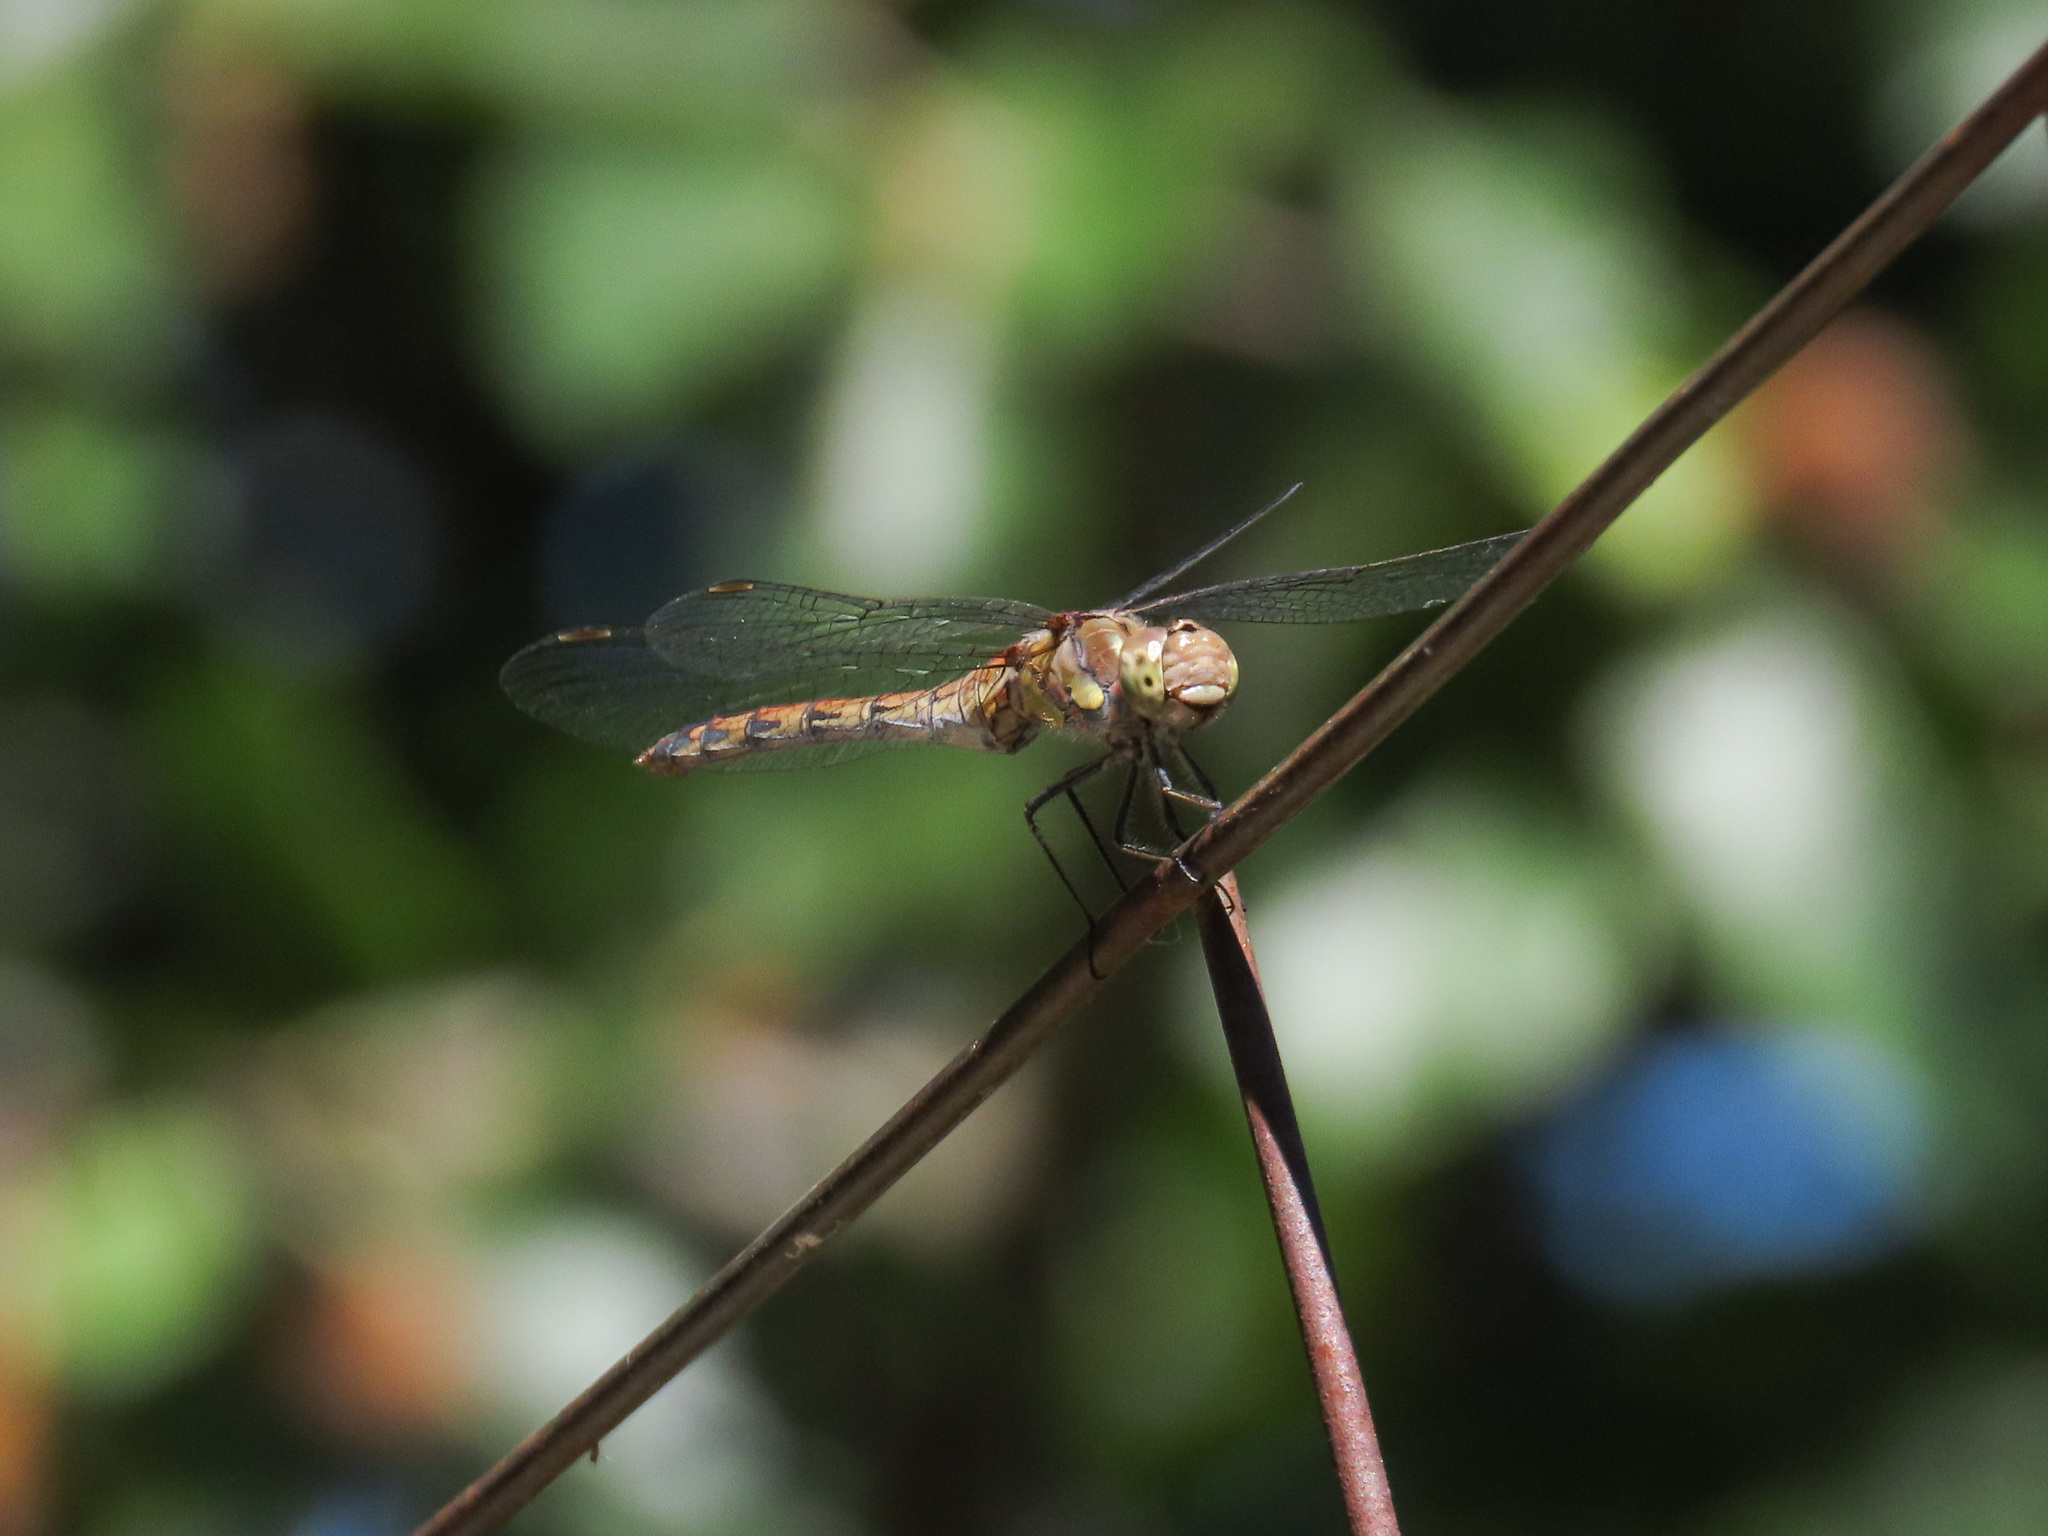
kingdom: Animalia
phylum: Arthropoda
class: Insecta
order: Odonata
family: Libellulidae
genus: Sympetrum
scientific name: Sympetrum striolatum
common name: Common darter
